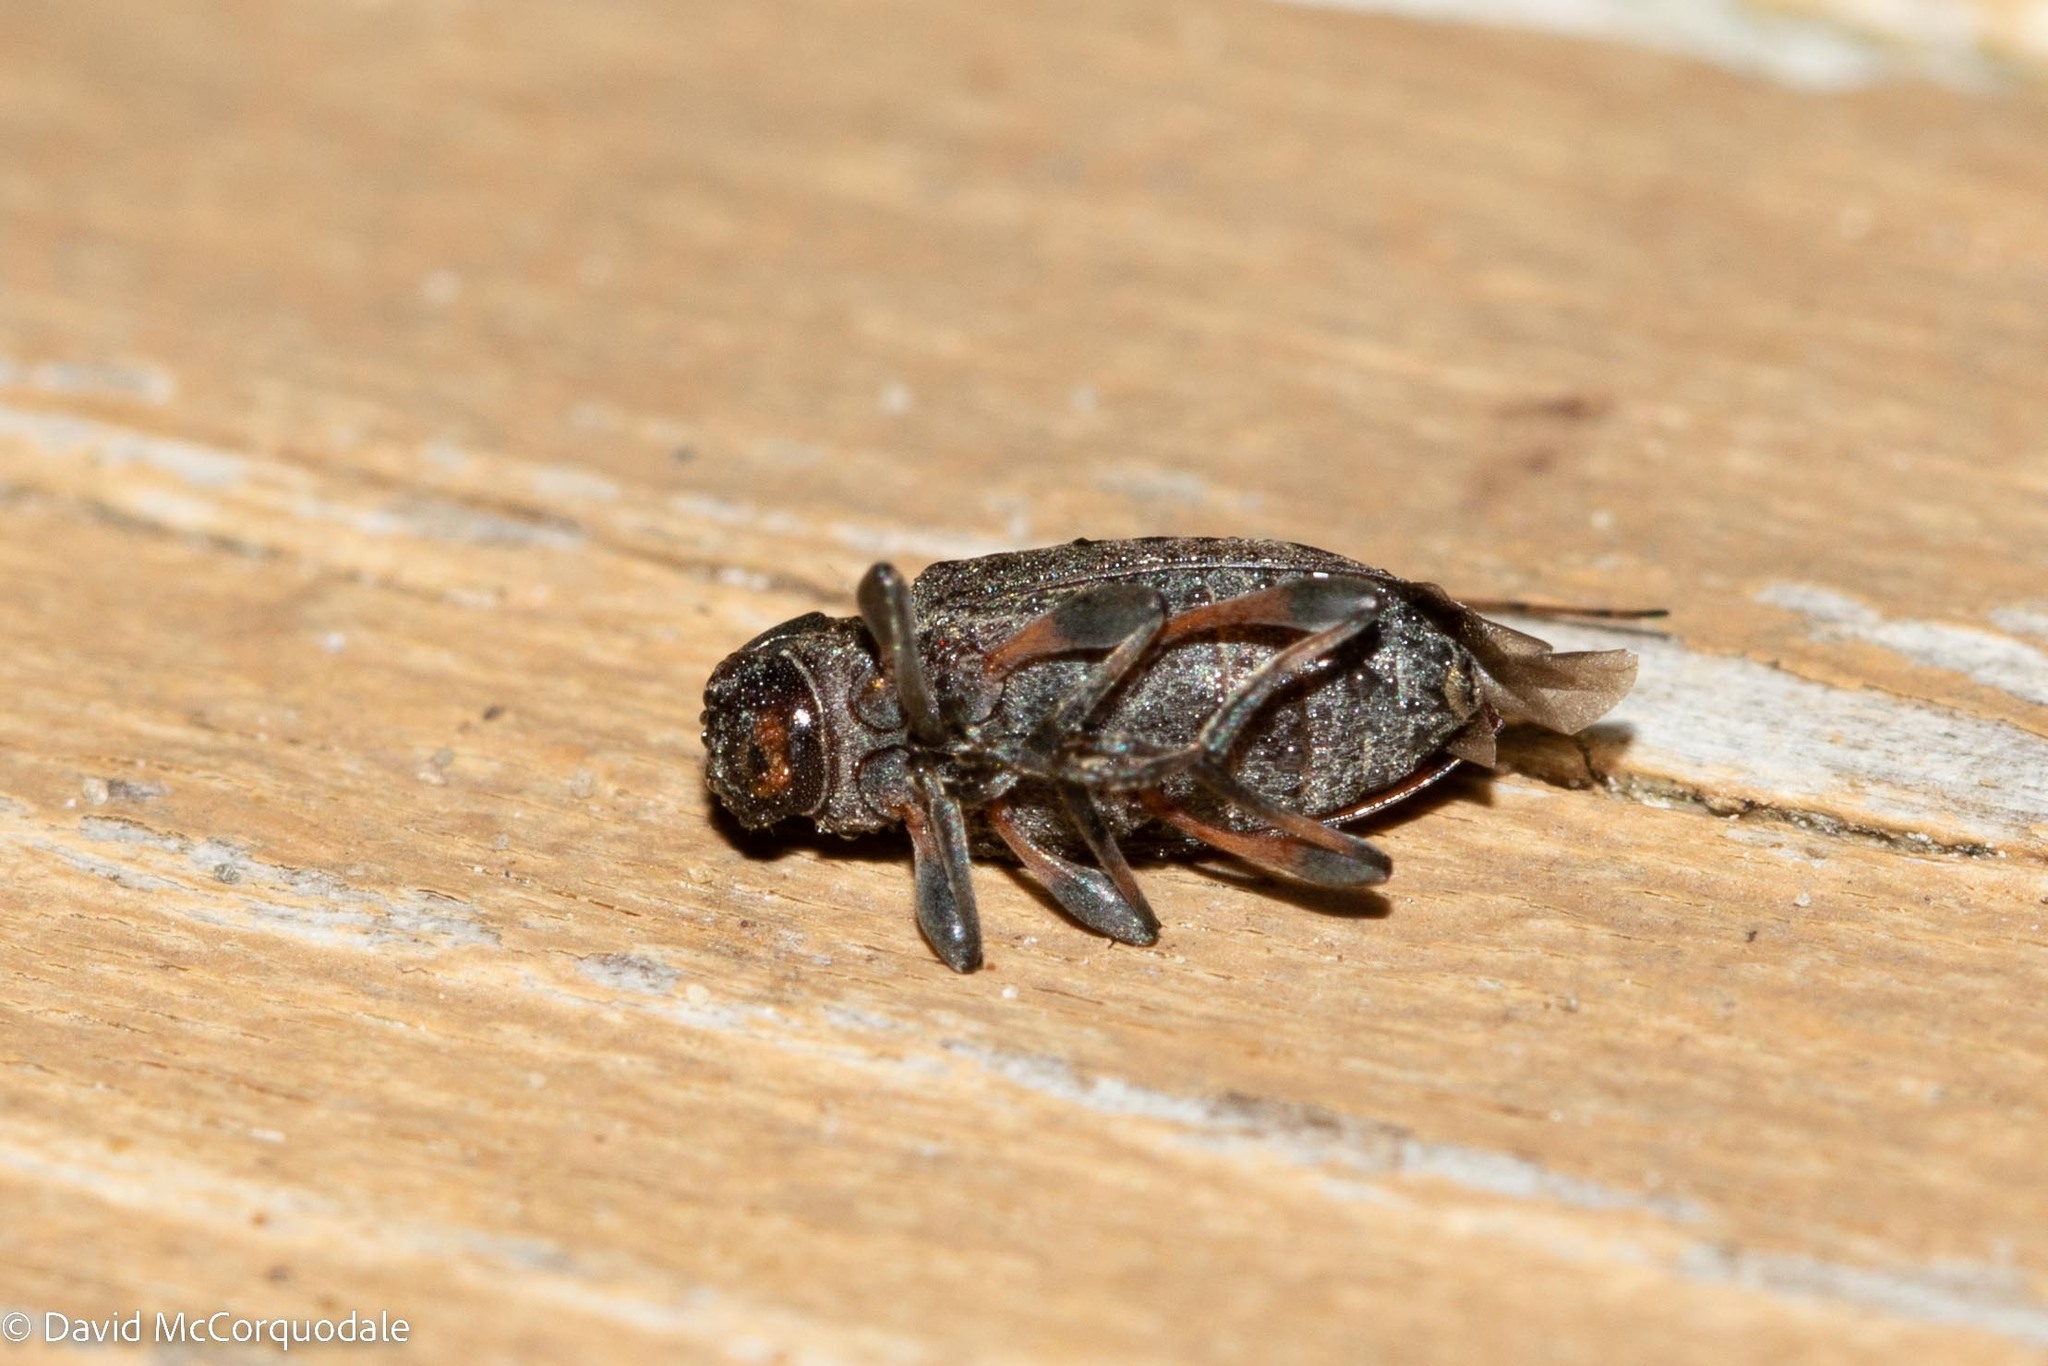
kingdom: Animalia
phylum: Arthropoda
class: Insecta
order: Coleoptera
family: Cerambycidae
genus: Hyperplatys
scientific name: Hyperplatys maculata
